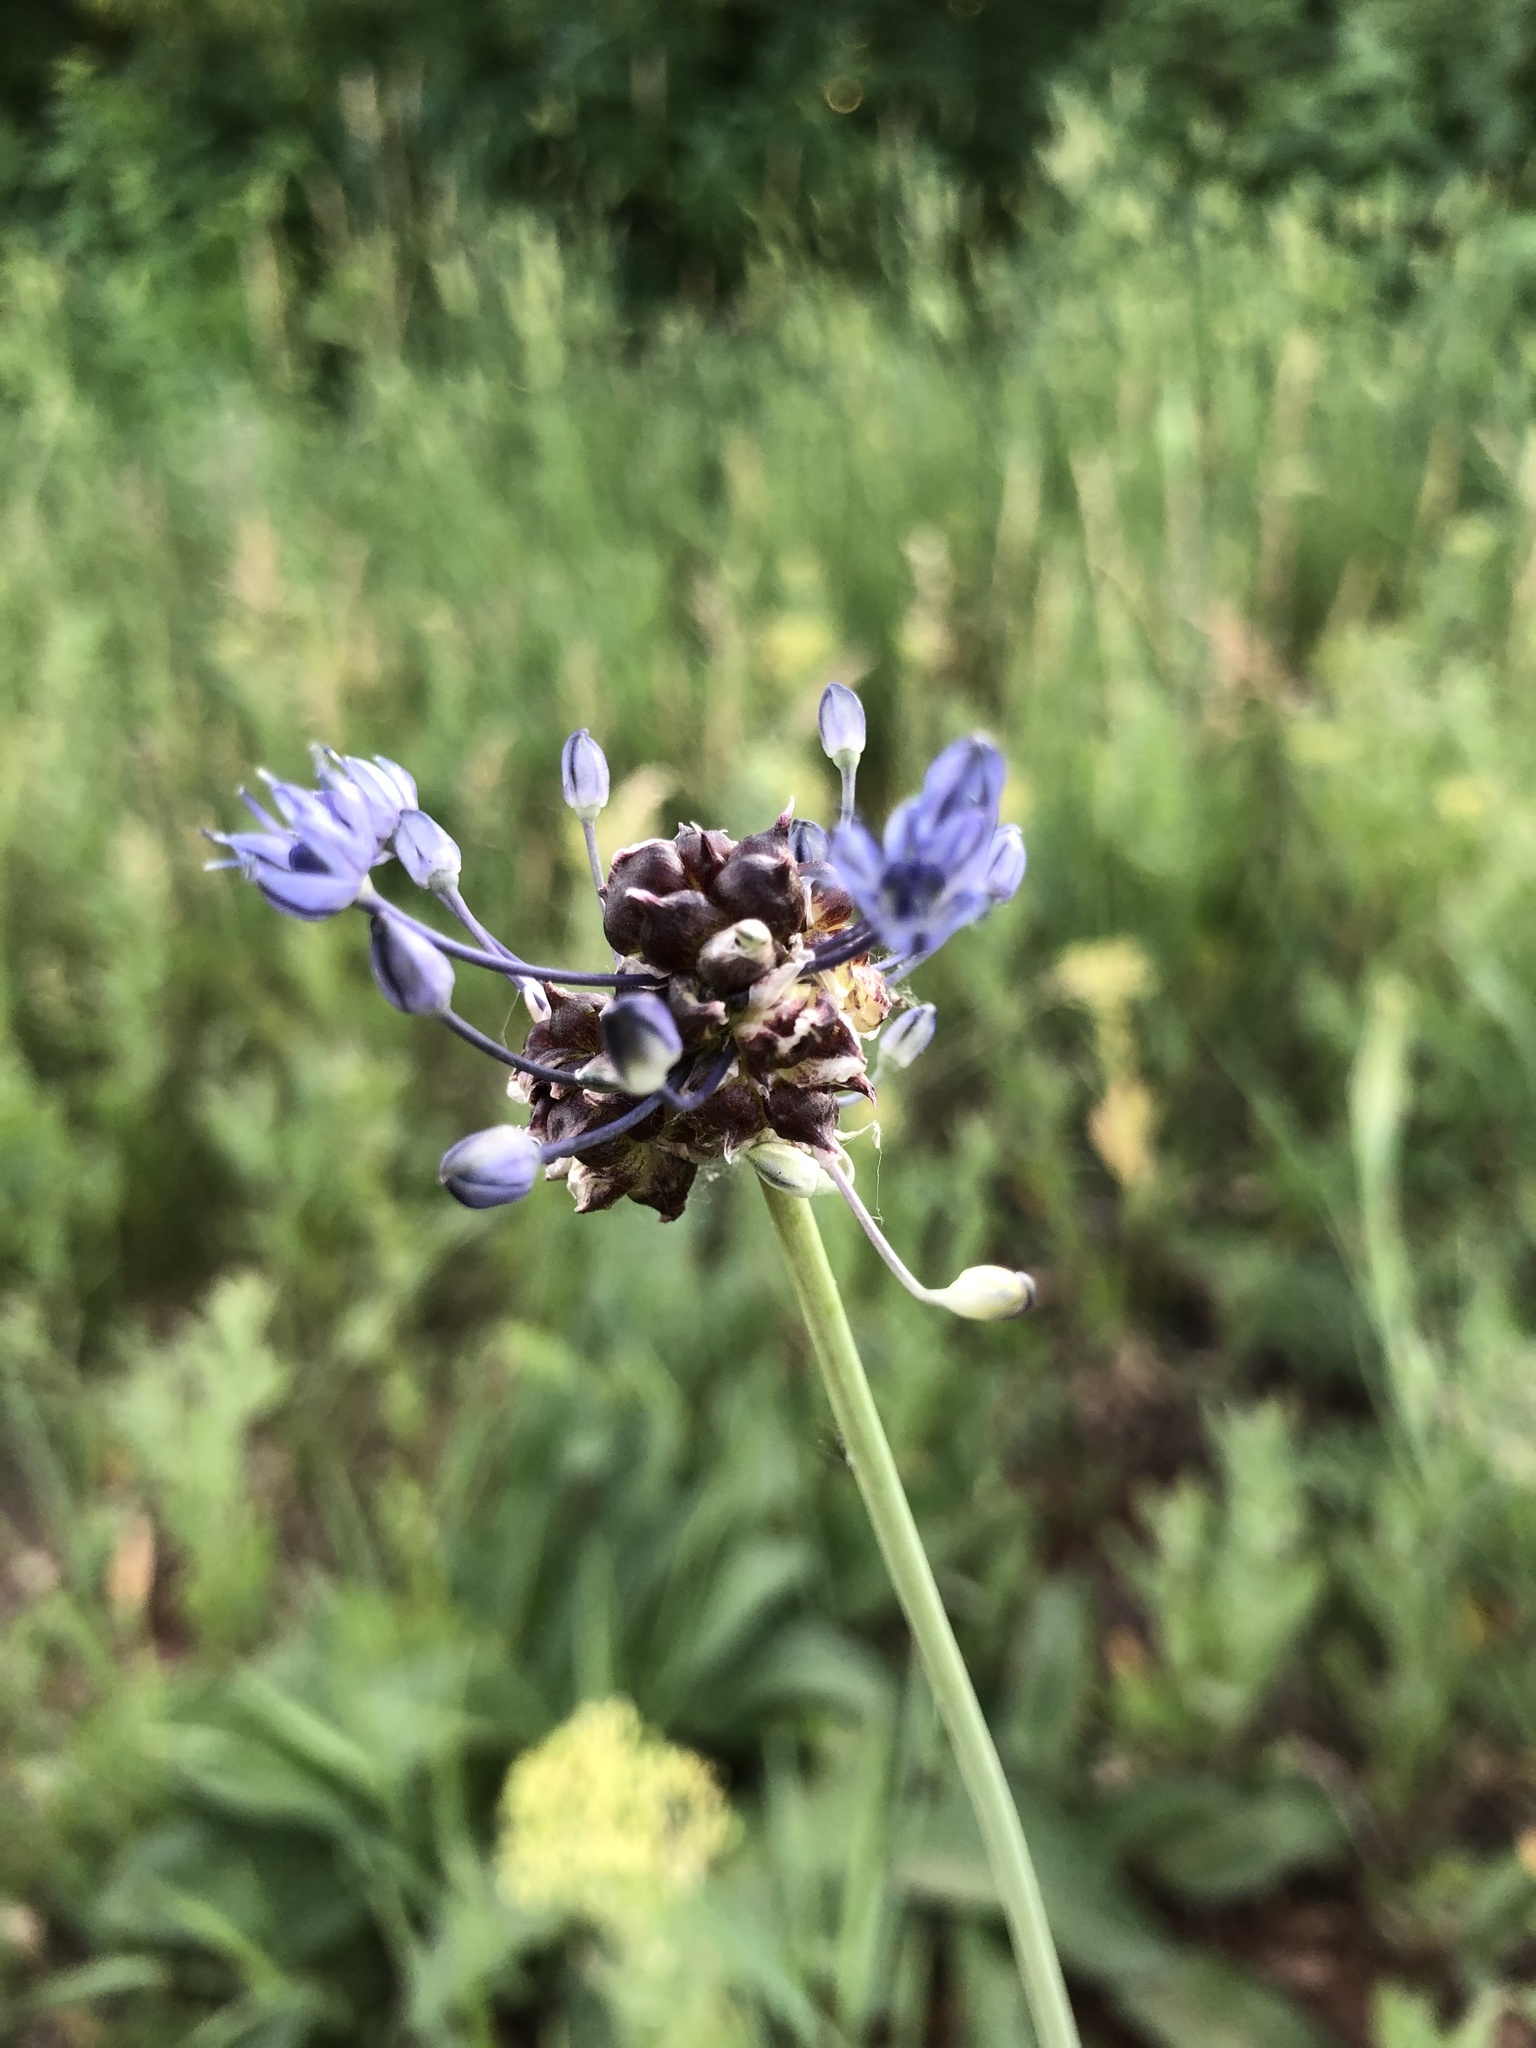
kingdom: Plantae
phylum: Tracheophyta
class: Liliopsida
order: Asparagales
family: Amaryllidaceae
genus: Allium
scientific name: Allium caeruleum
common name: Blue-of-the-heavens
